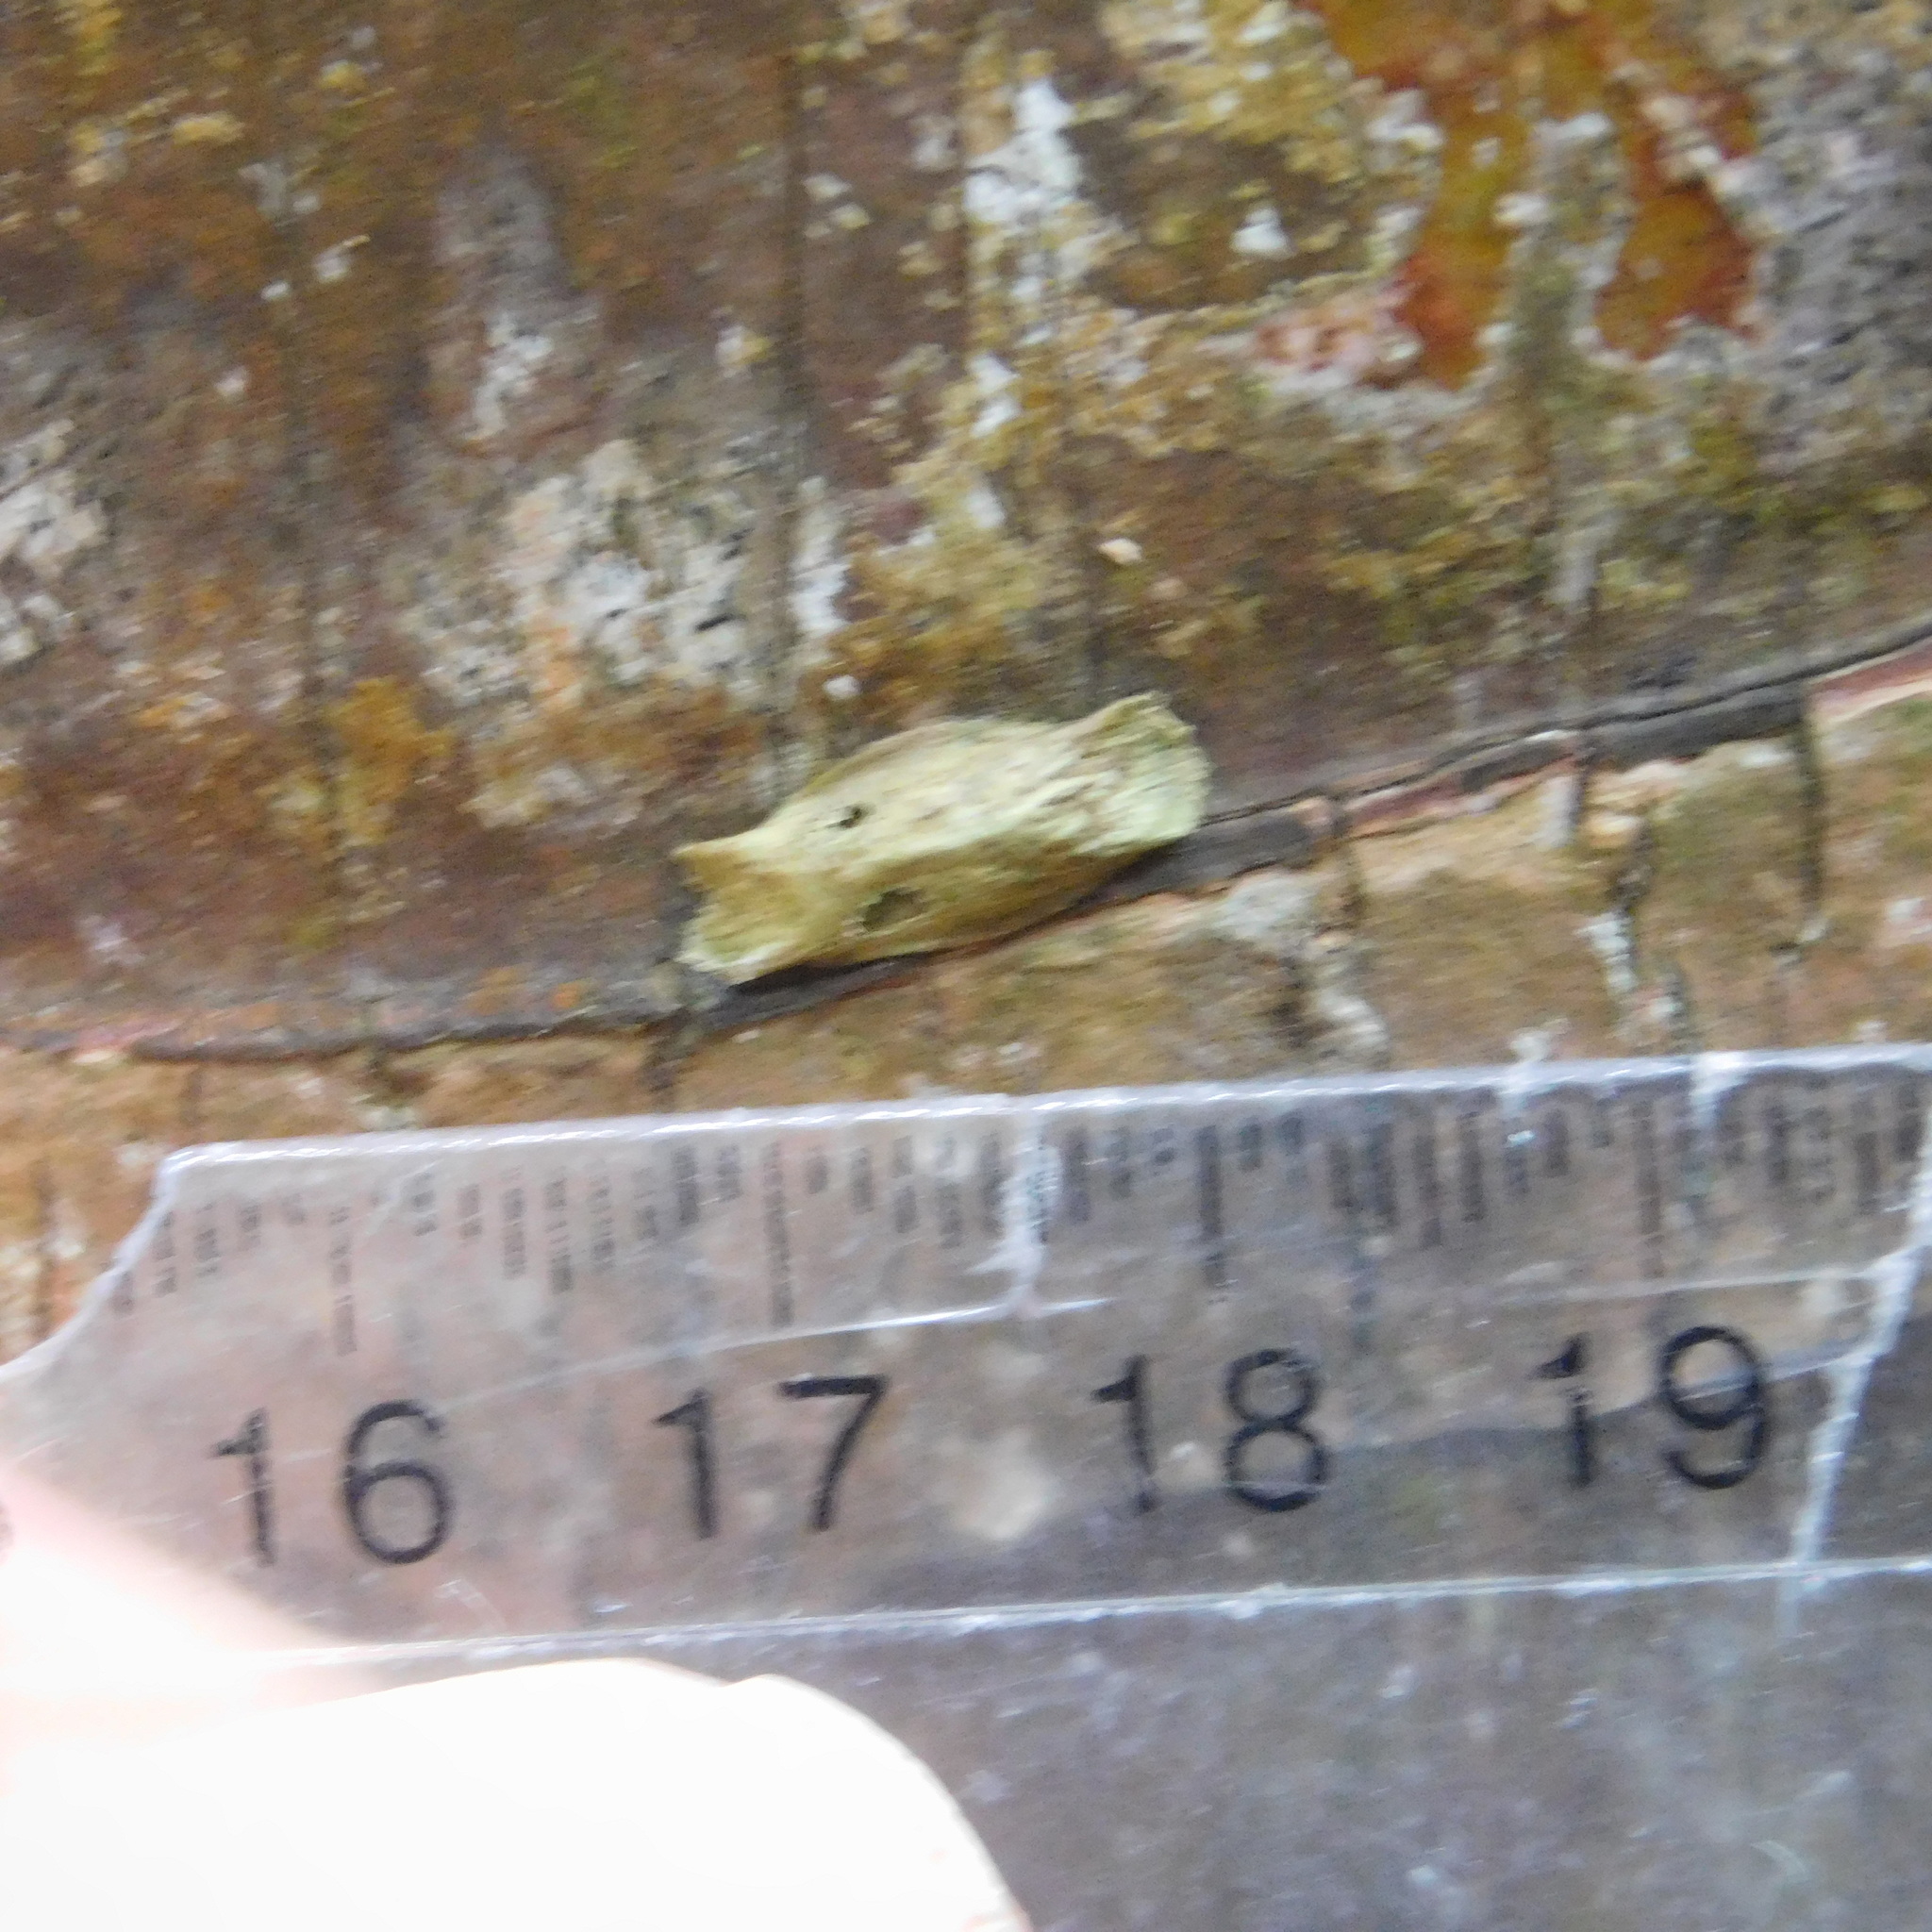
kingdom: Animalia
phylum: Arthropoda
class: Insecta
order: Lepidoptera
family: Plutellidae
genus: Doxophyrtis
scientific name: Doxophyrtis hydrocosma
